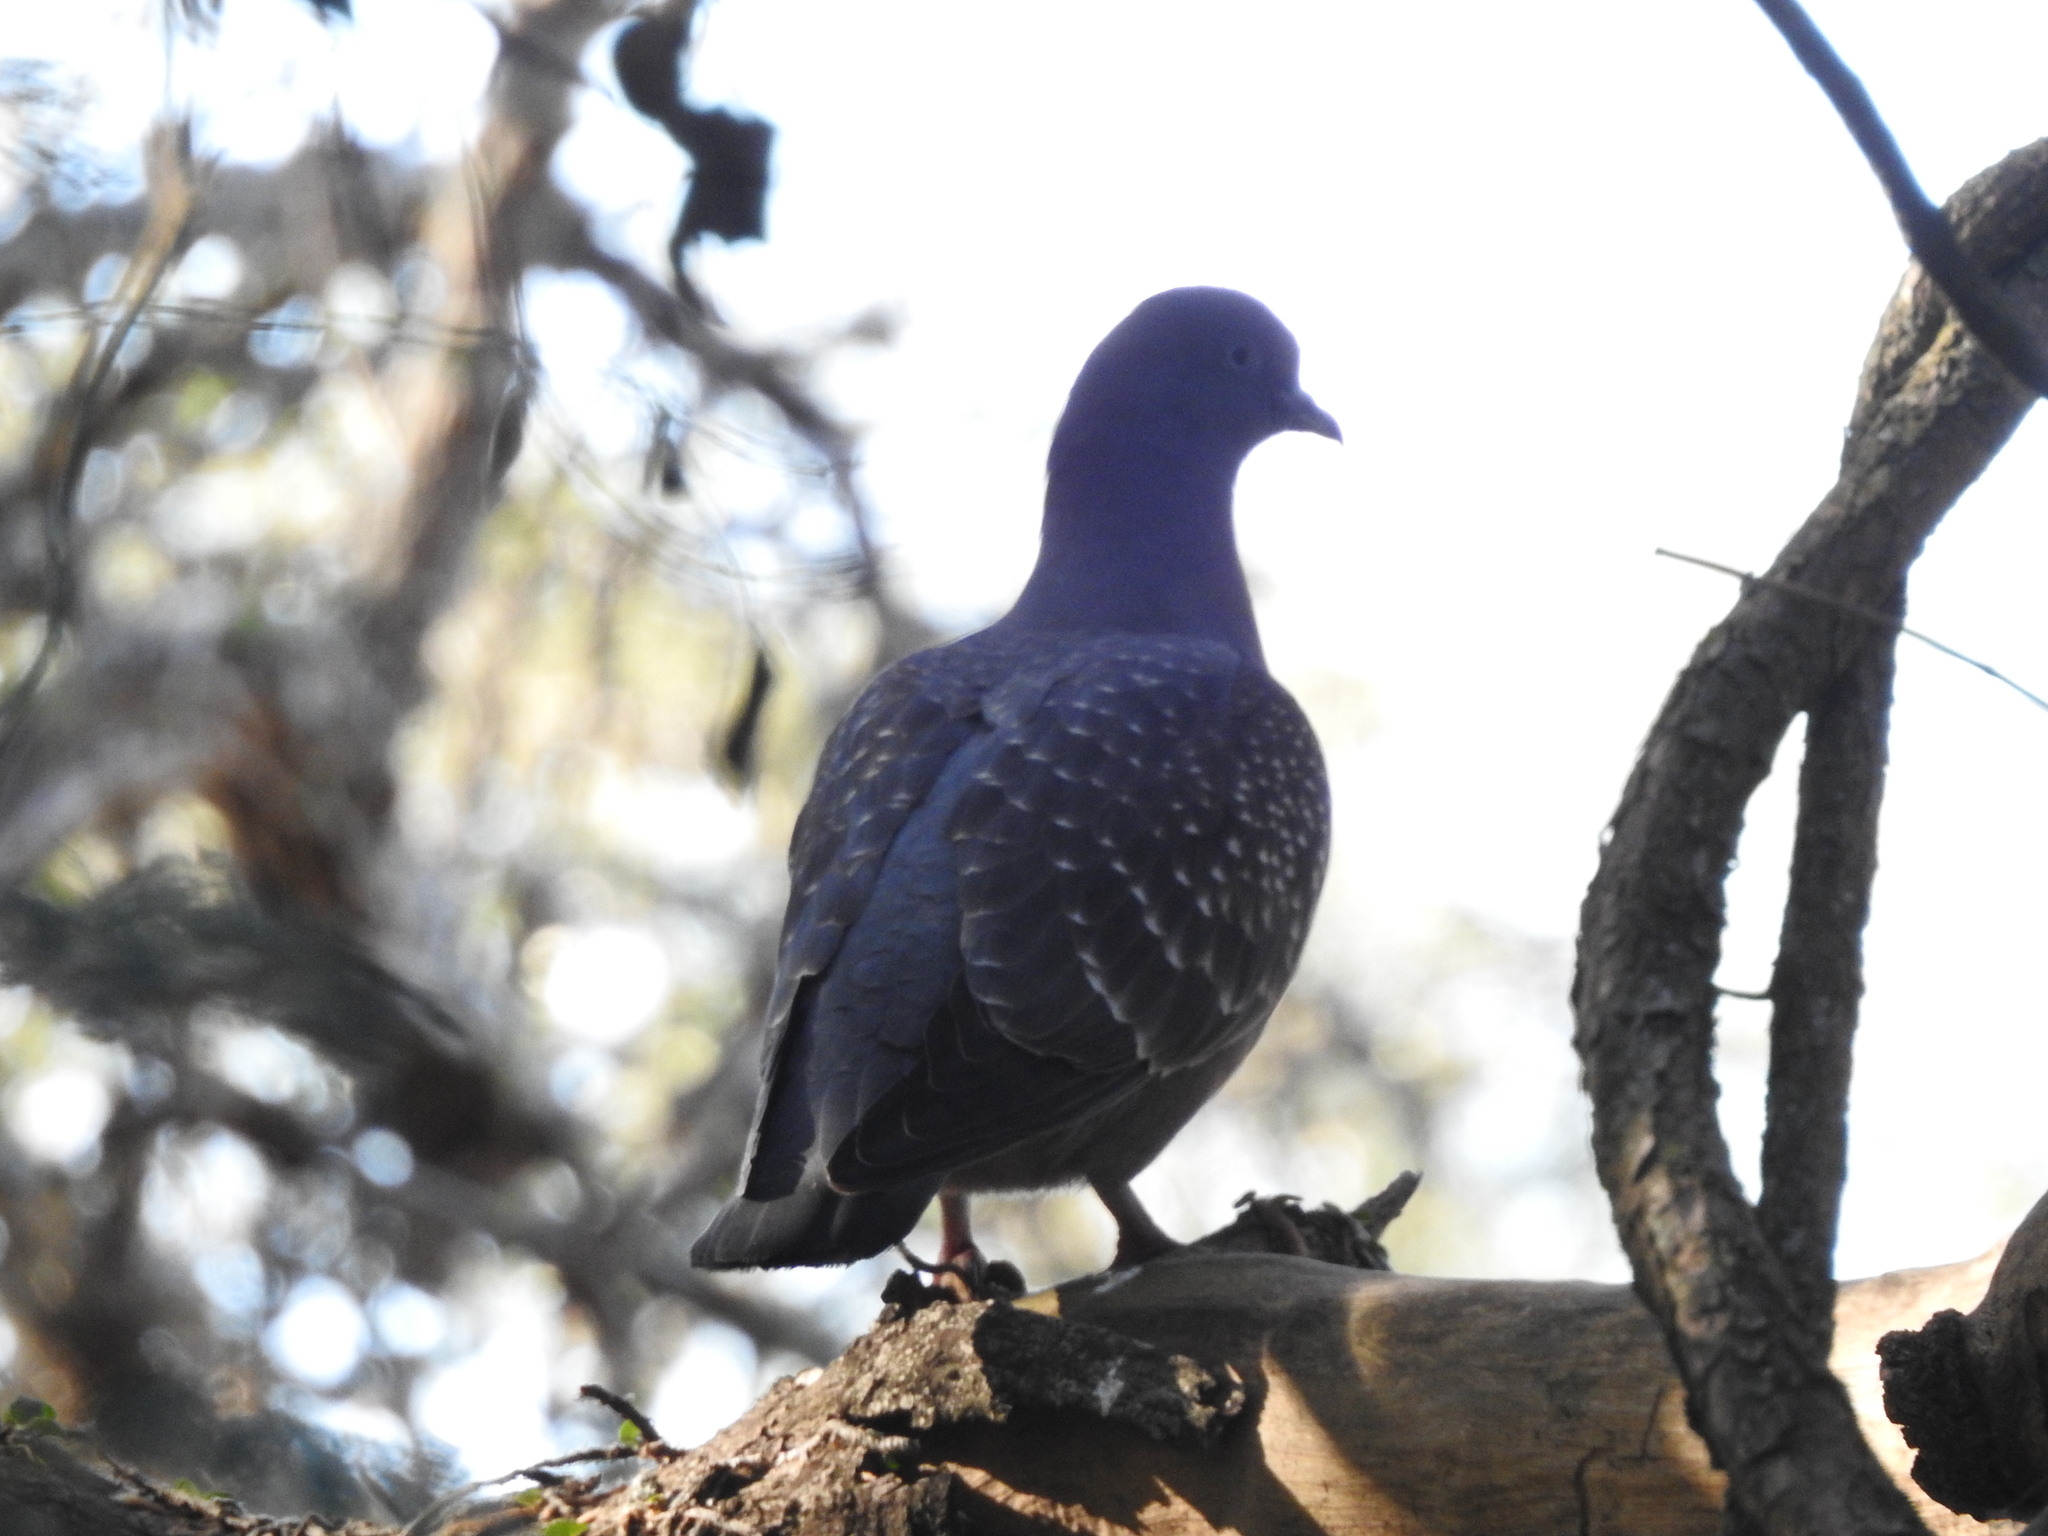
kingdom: Animalia
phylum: Chordata
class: Aves
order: Columbiformes
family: Columbidae
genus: Patagioenas
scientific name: Patagioenas maculosa
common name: Spot-winged pigeon
